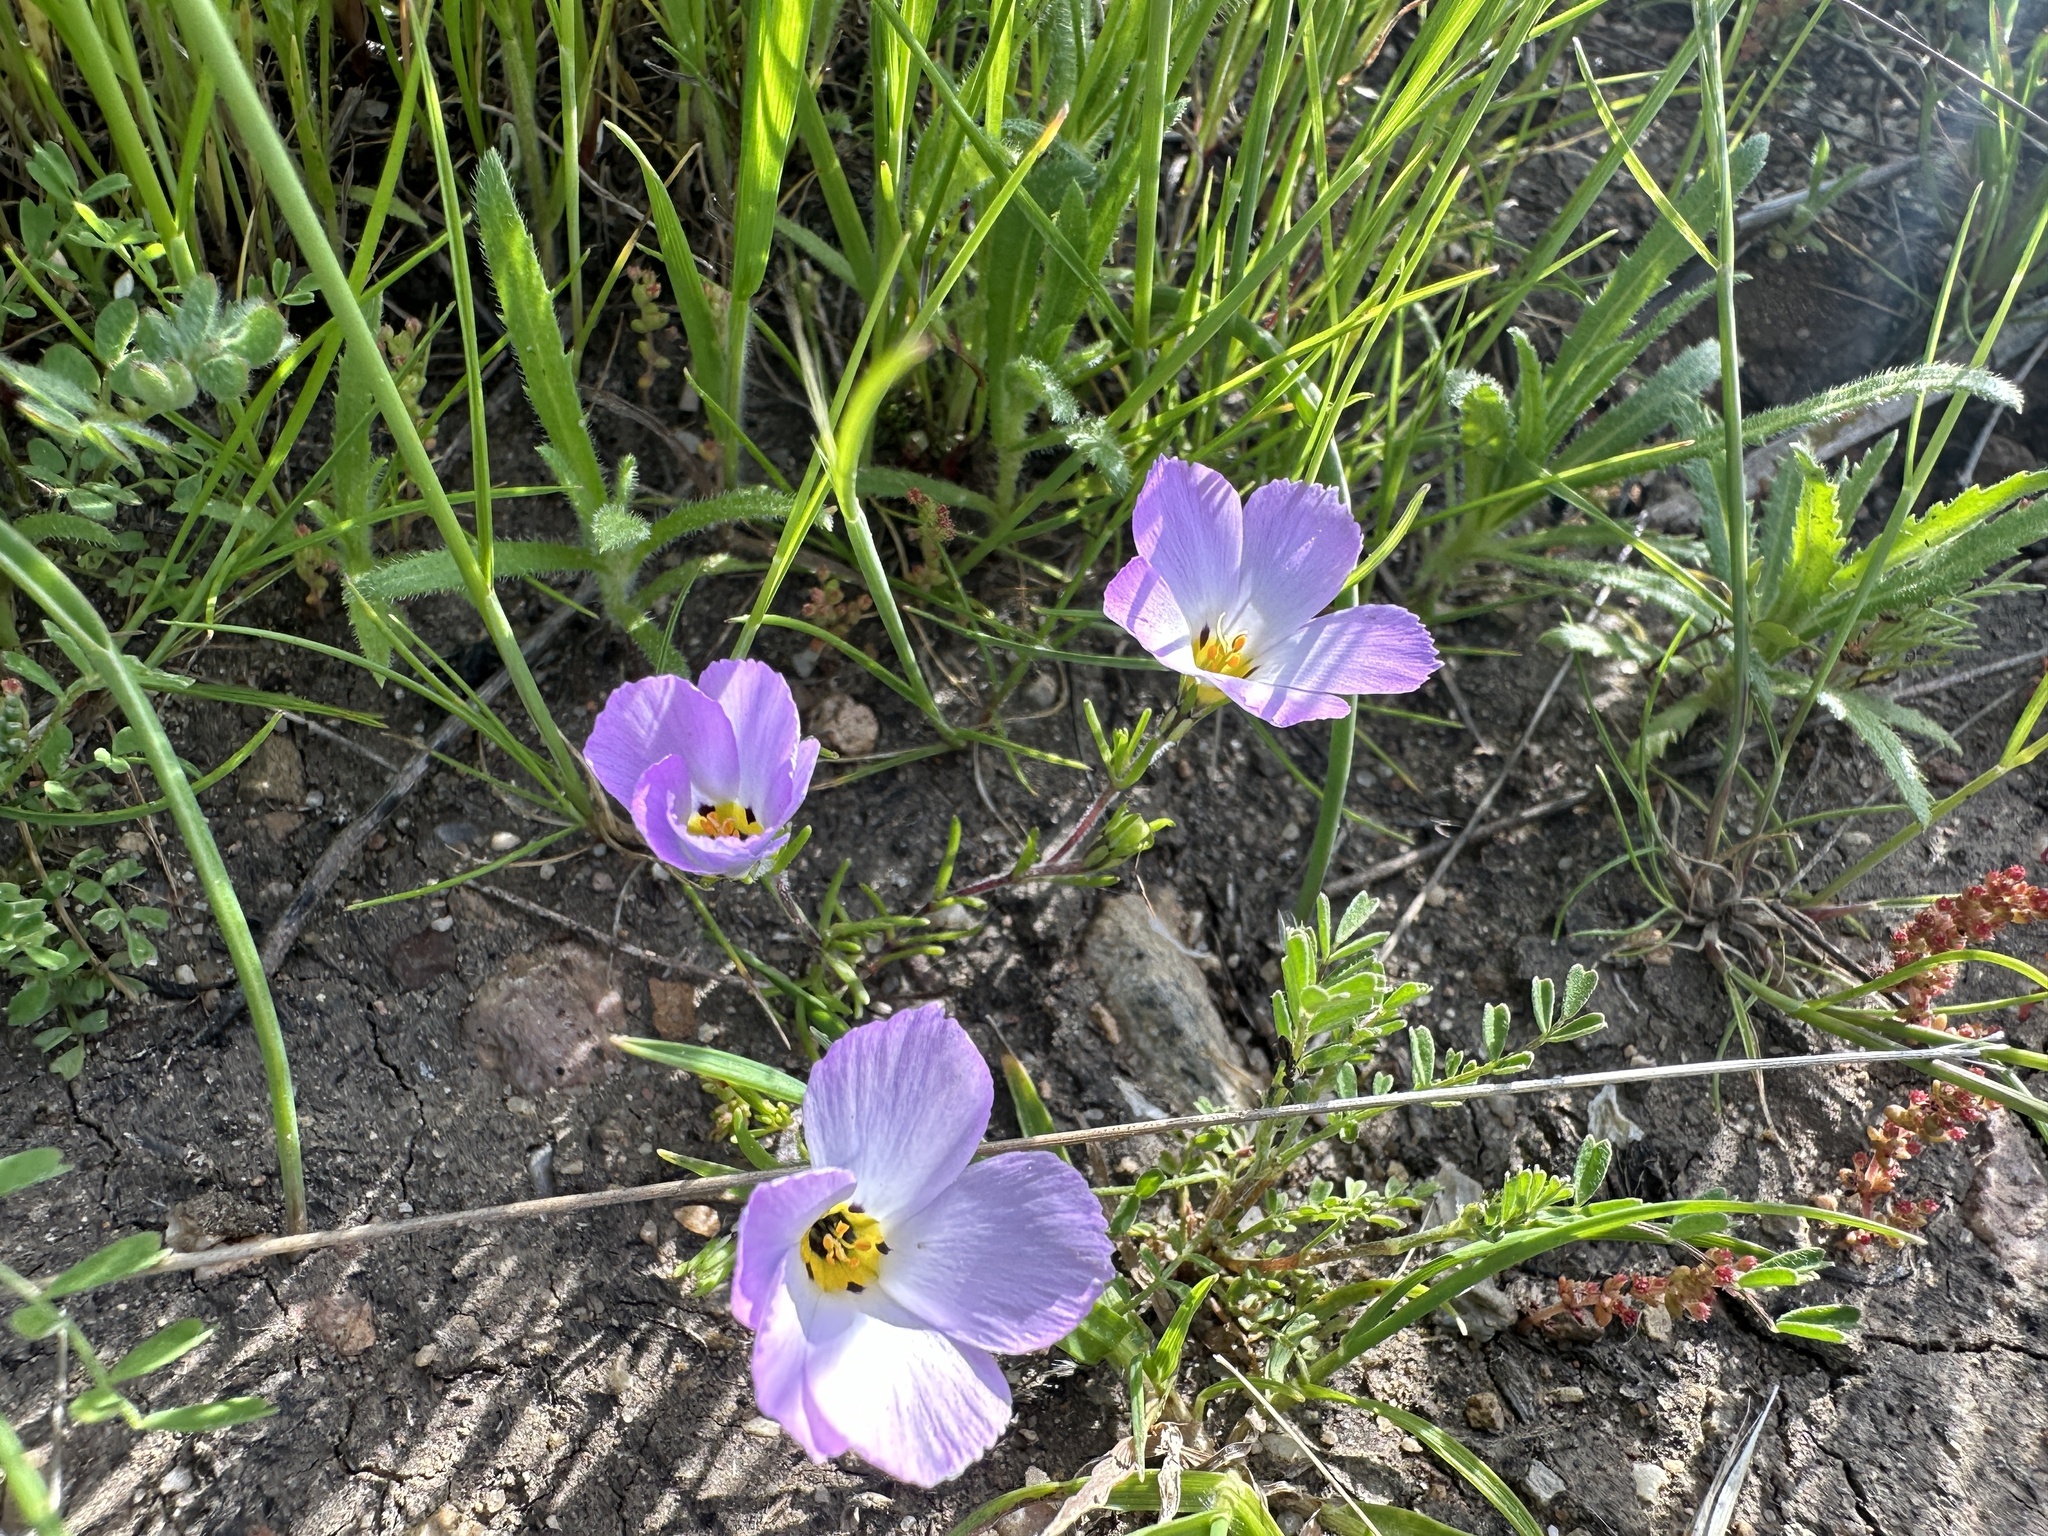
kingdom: Plantae
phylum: Tracheophyta
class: Magnoliopsida
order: Ericales
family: Polemoniaceae
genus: Linanthus
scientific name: Linanthus dianthiflorus
